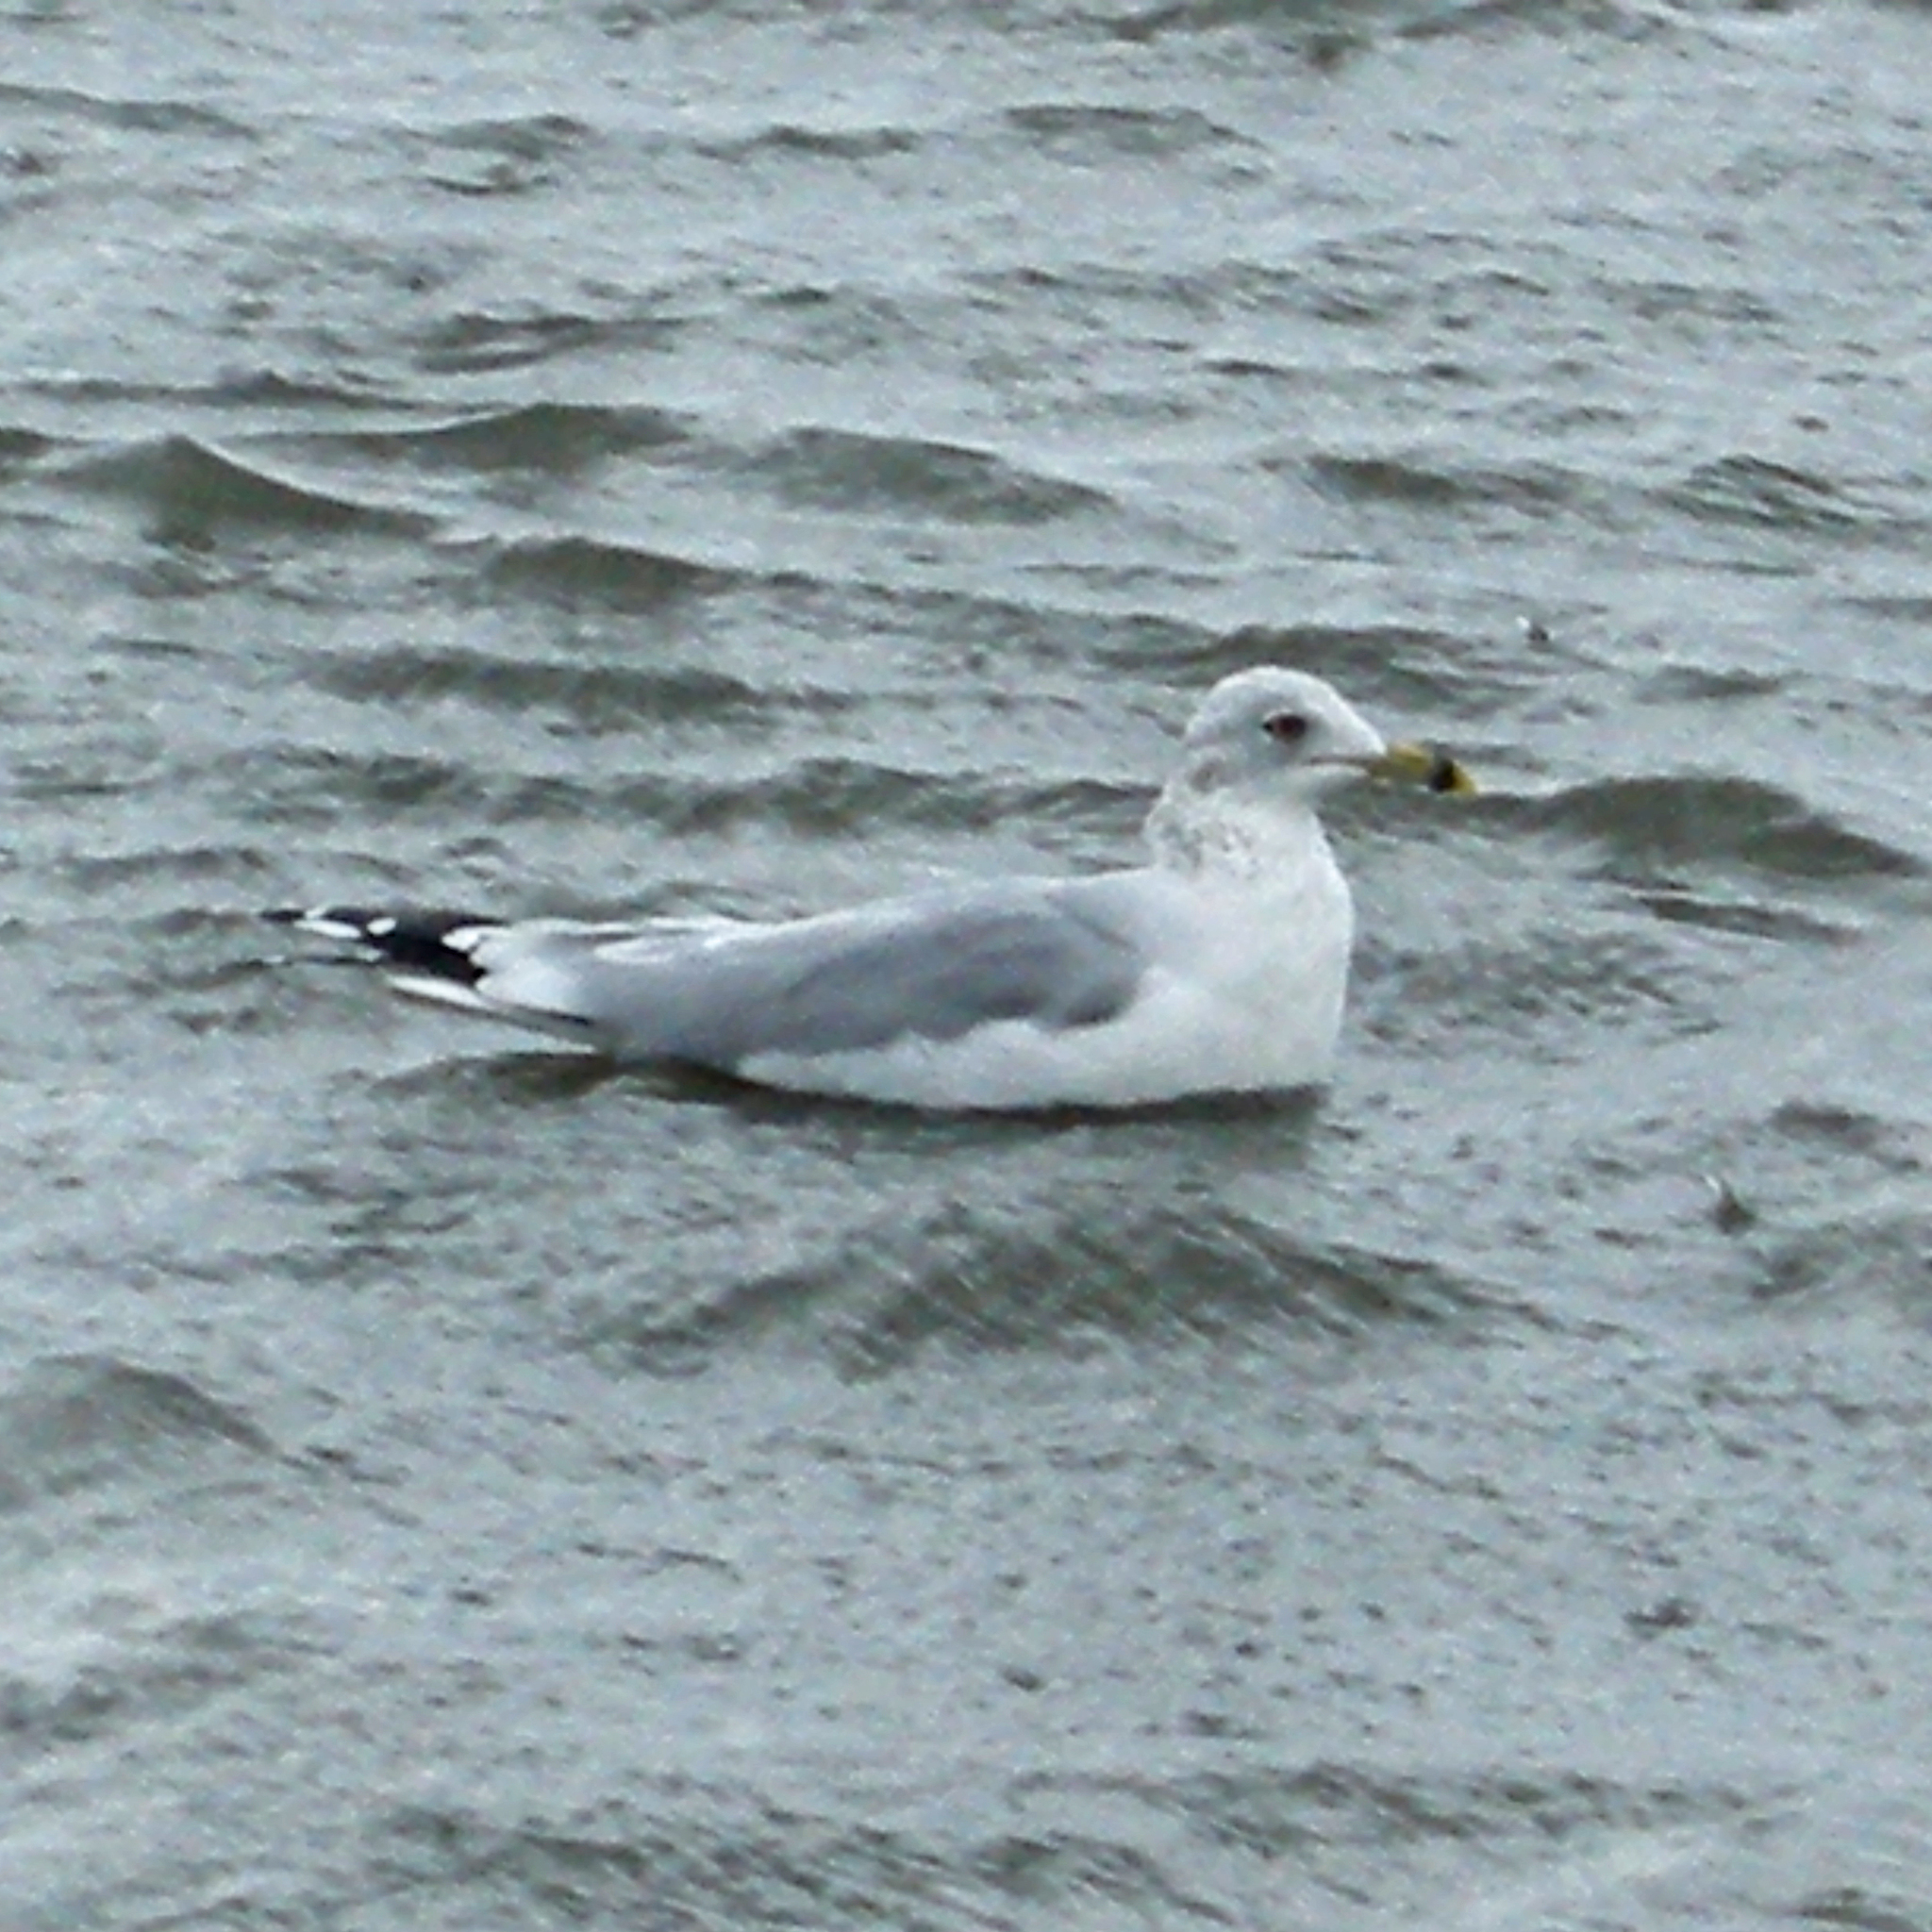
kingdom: Animalia
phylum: Chordata
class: Aves
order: Charadriiformes
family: Laridae
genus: Larus
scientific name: Larus delawarensis
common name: Ring-billed gull
